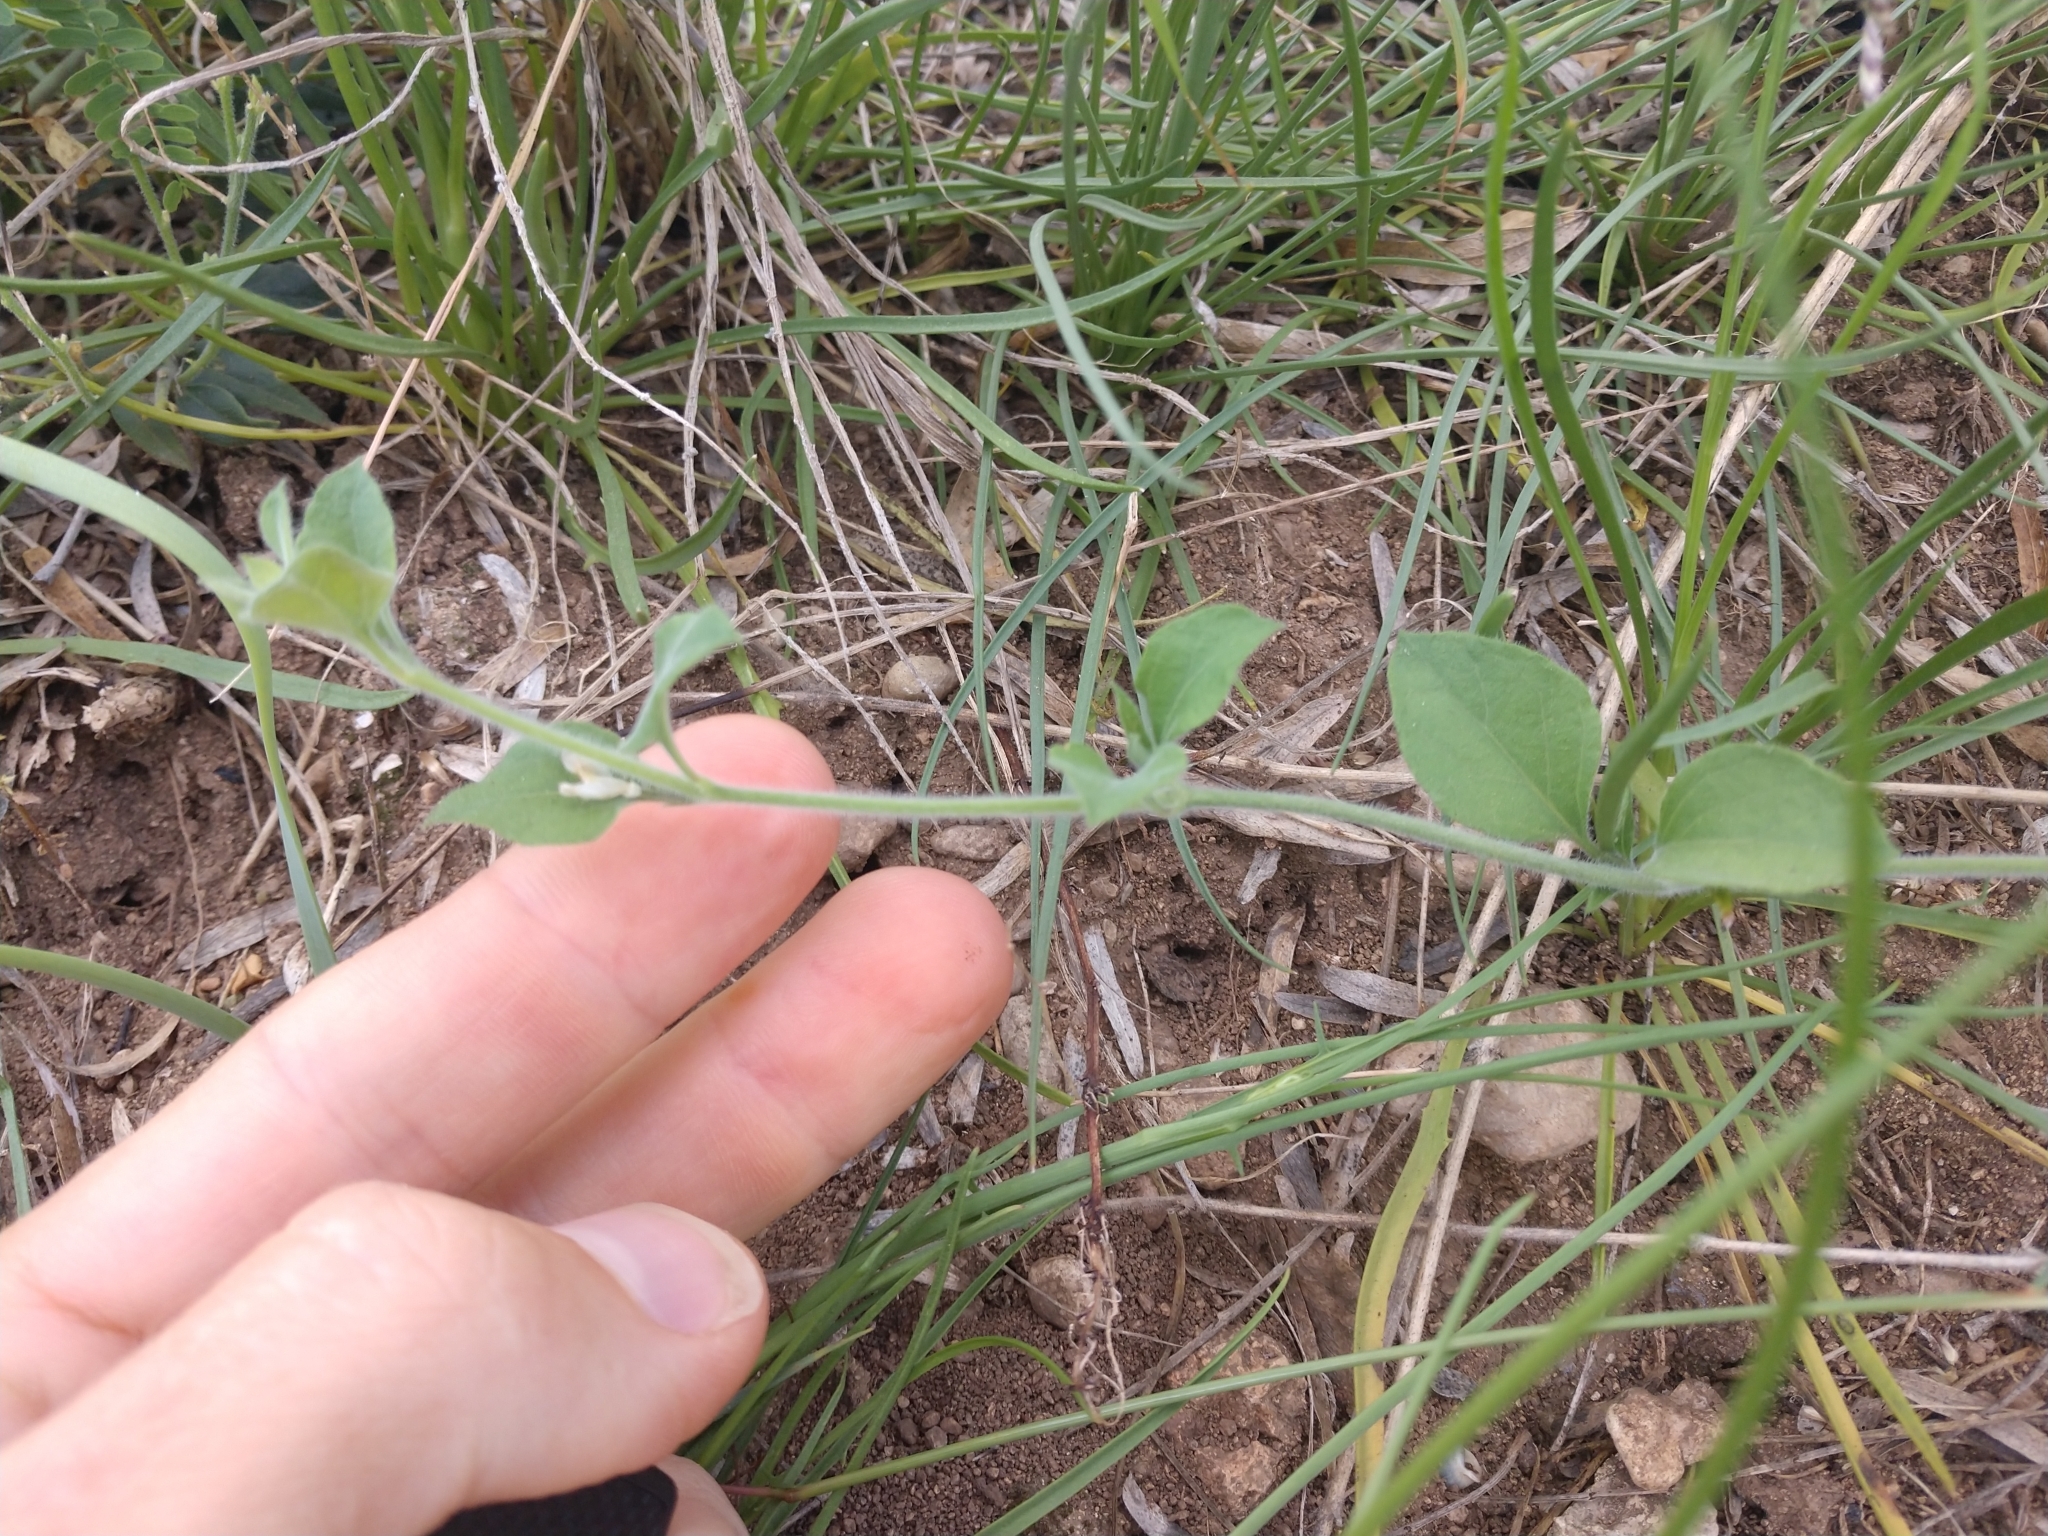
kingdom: Plantae
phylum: Tracheophyta
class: Magnoliopsida
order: Lamiales
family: Acanthaceae
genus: Carlowrightia
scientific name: Carlowrightia torreyana
